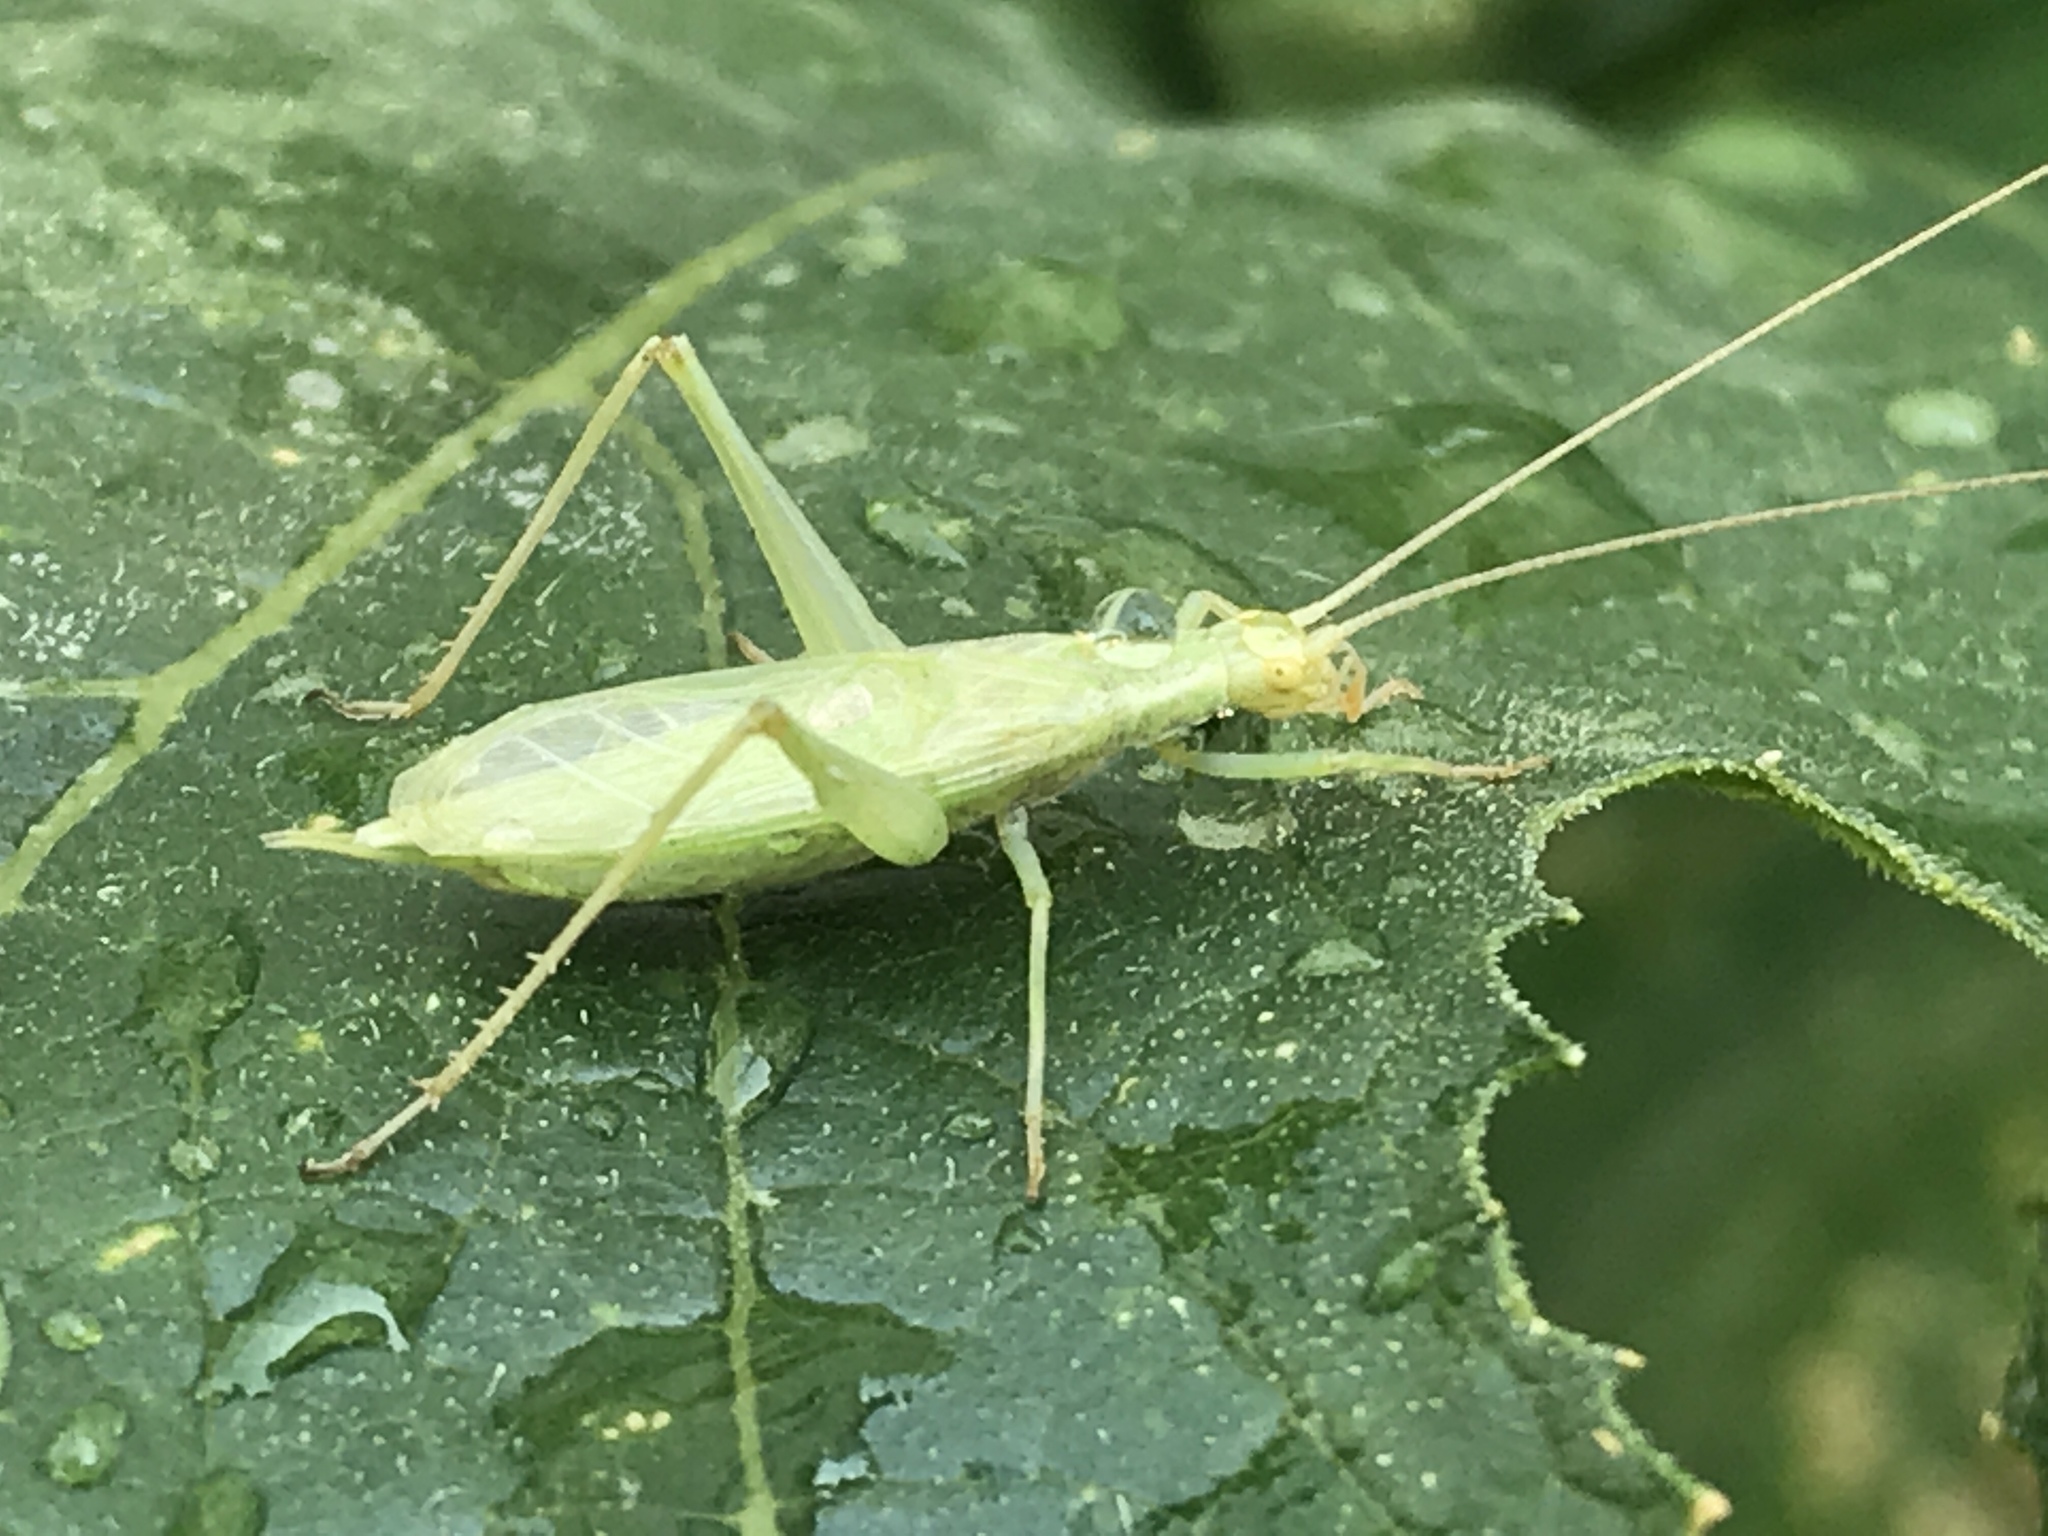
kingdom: Animalia
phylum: Arthropoda
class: Insecta
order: Orthoptera
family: Gryllidae
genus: Oecanthus
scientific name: Oecanthus quadripunctatus
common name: Four-spotted tree cricket
